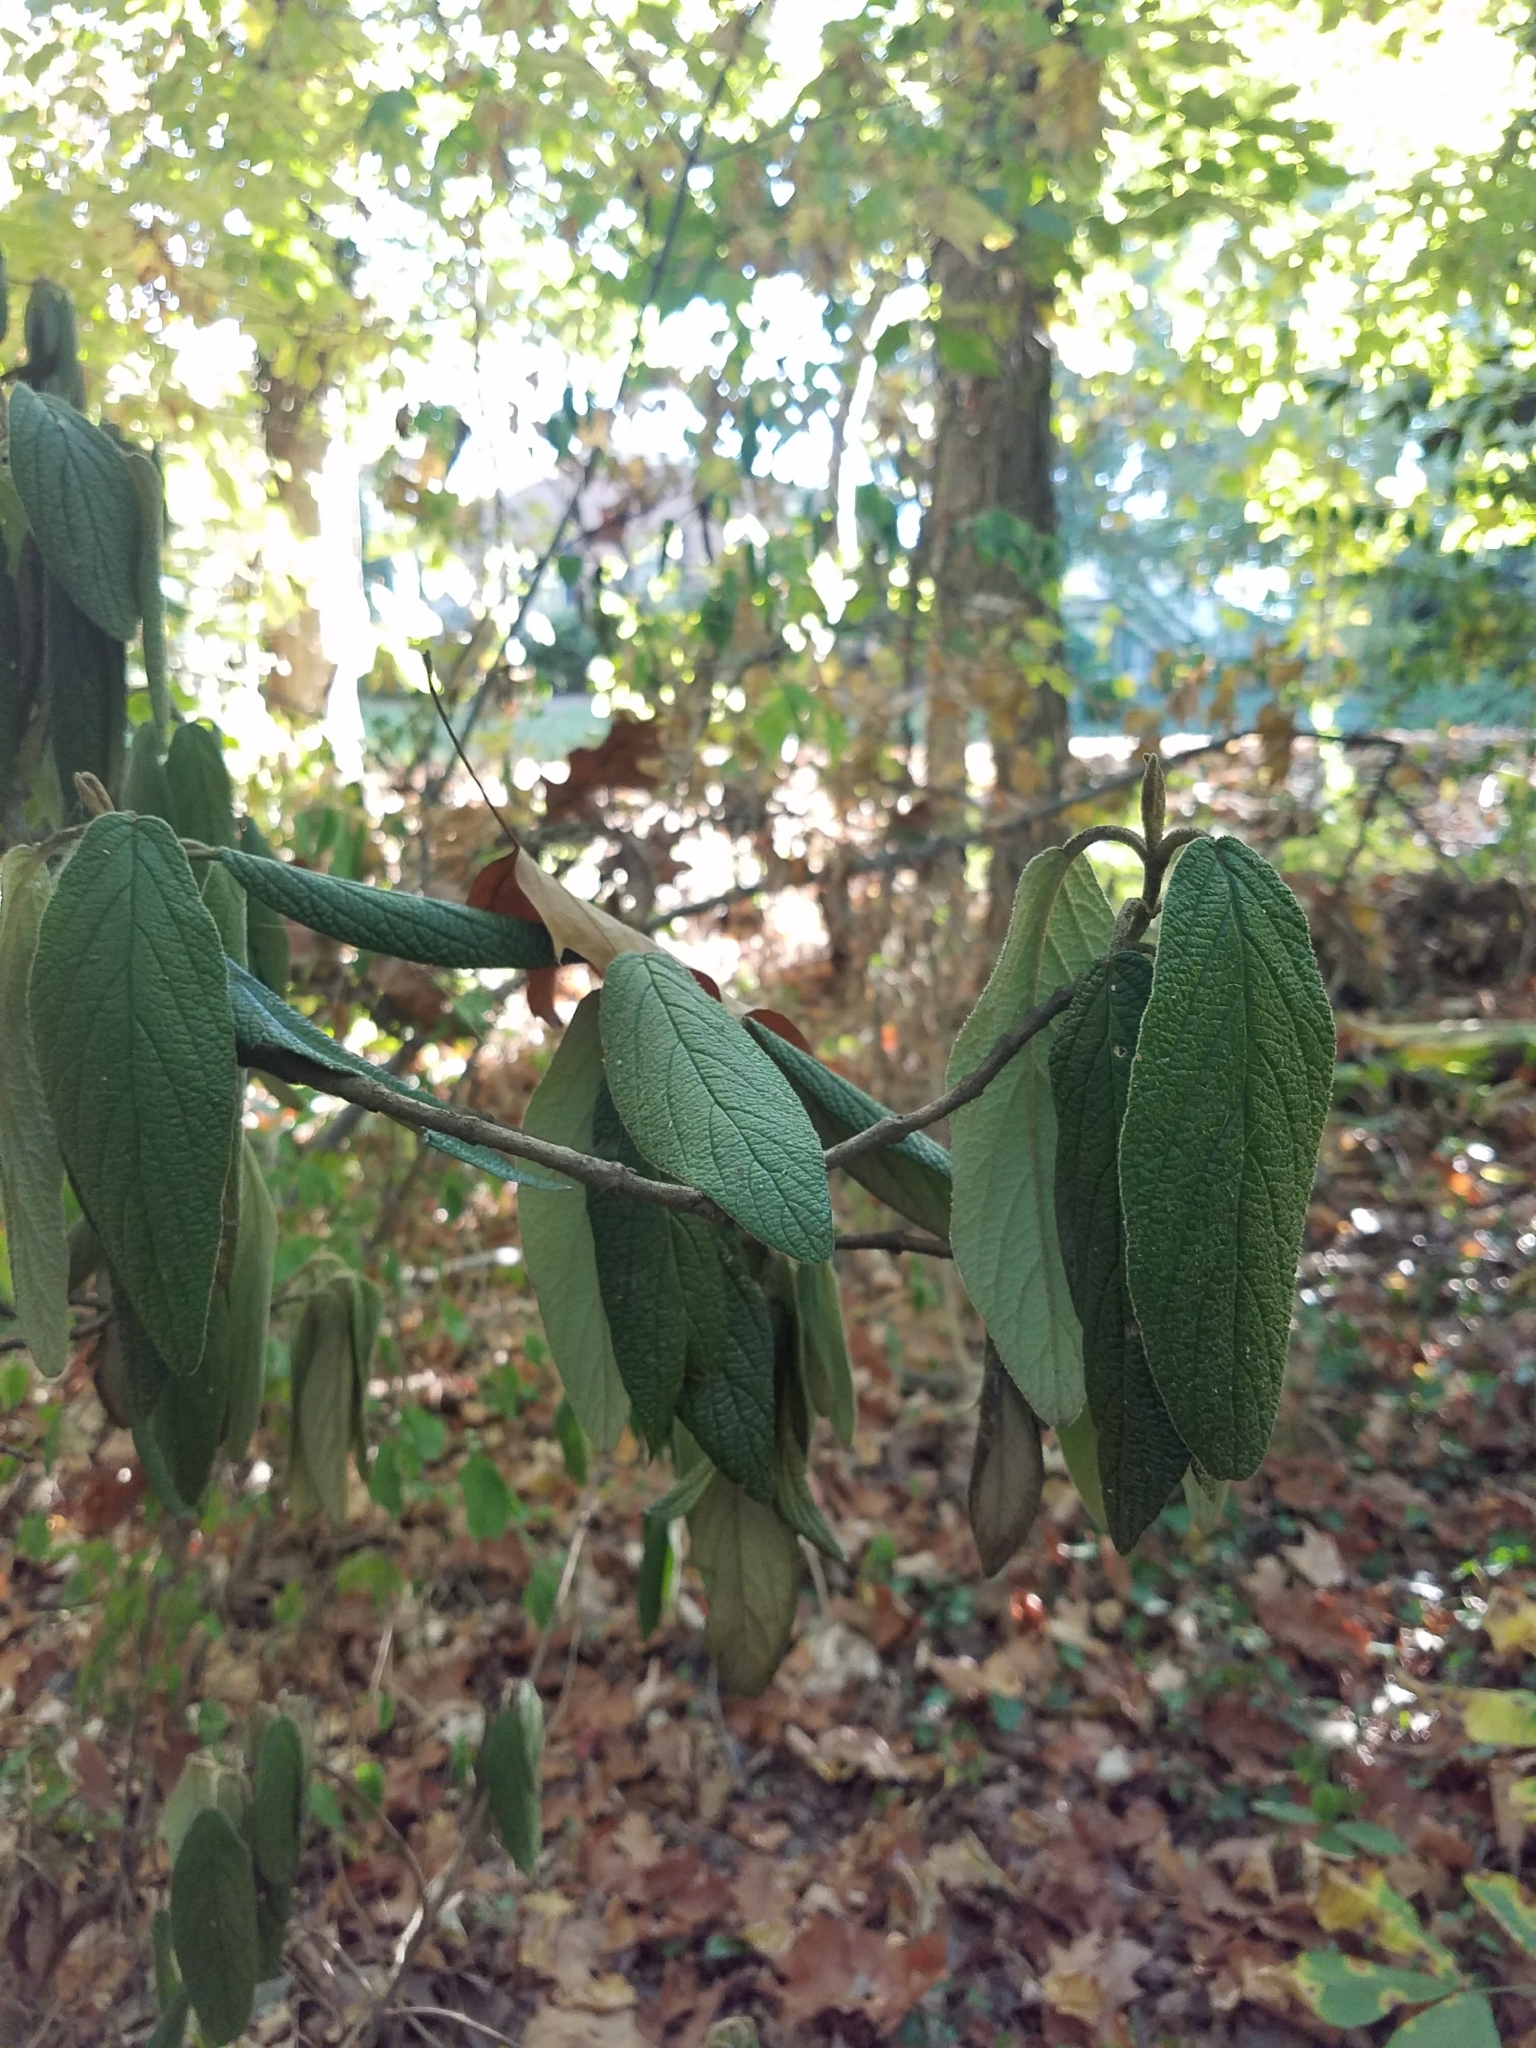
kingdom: Plantae
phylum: Tracheophyta
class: Magnoliopsida
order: Dipsacales
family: Viburnaceae
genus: Viburnum
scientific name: Viburnum rhytidophyllum
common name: Wrinkled viburnum
